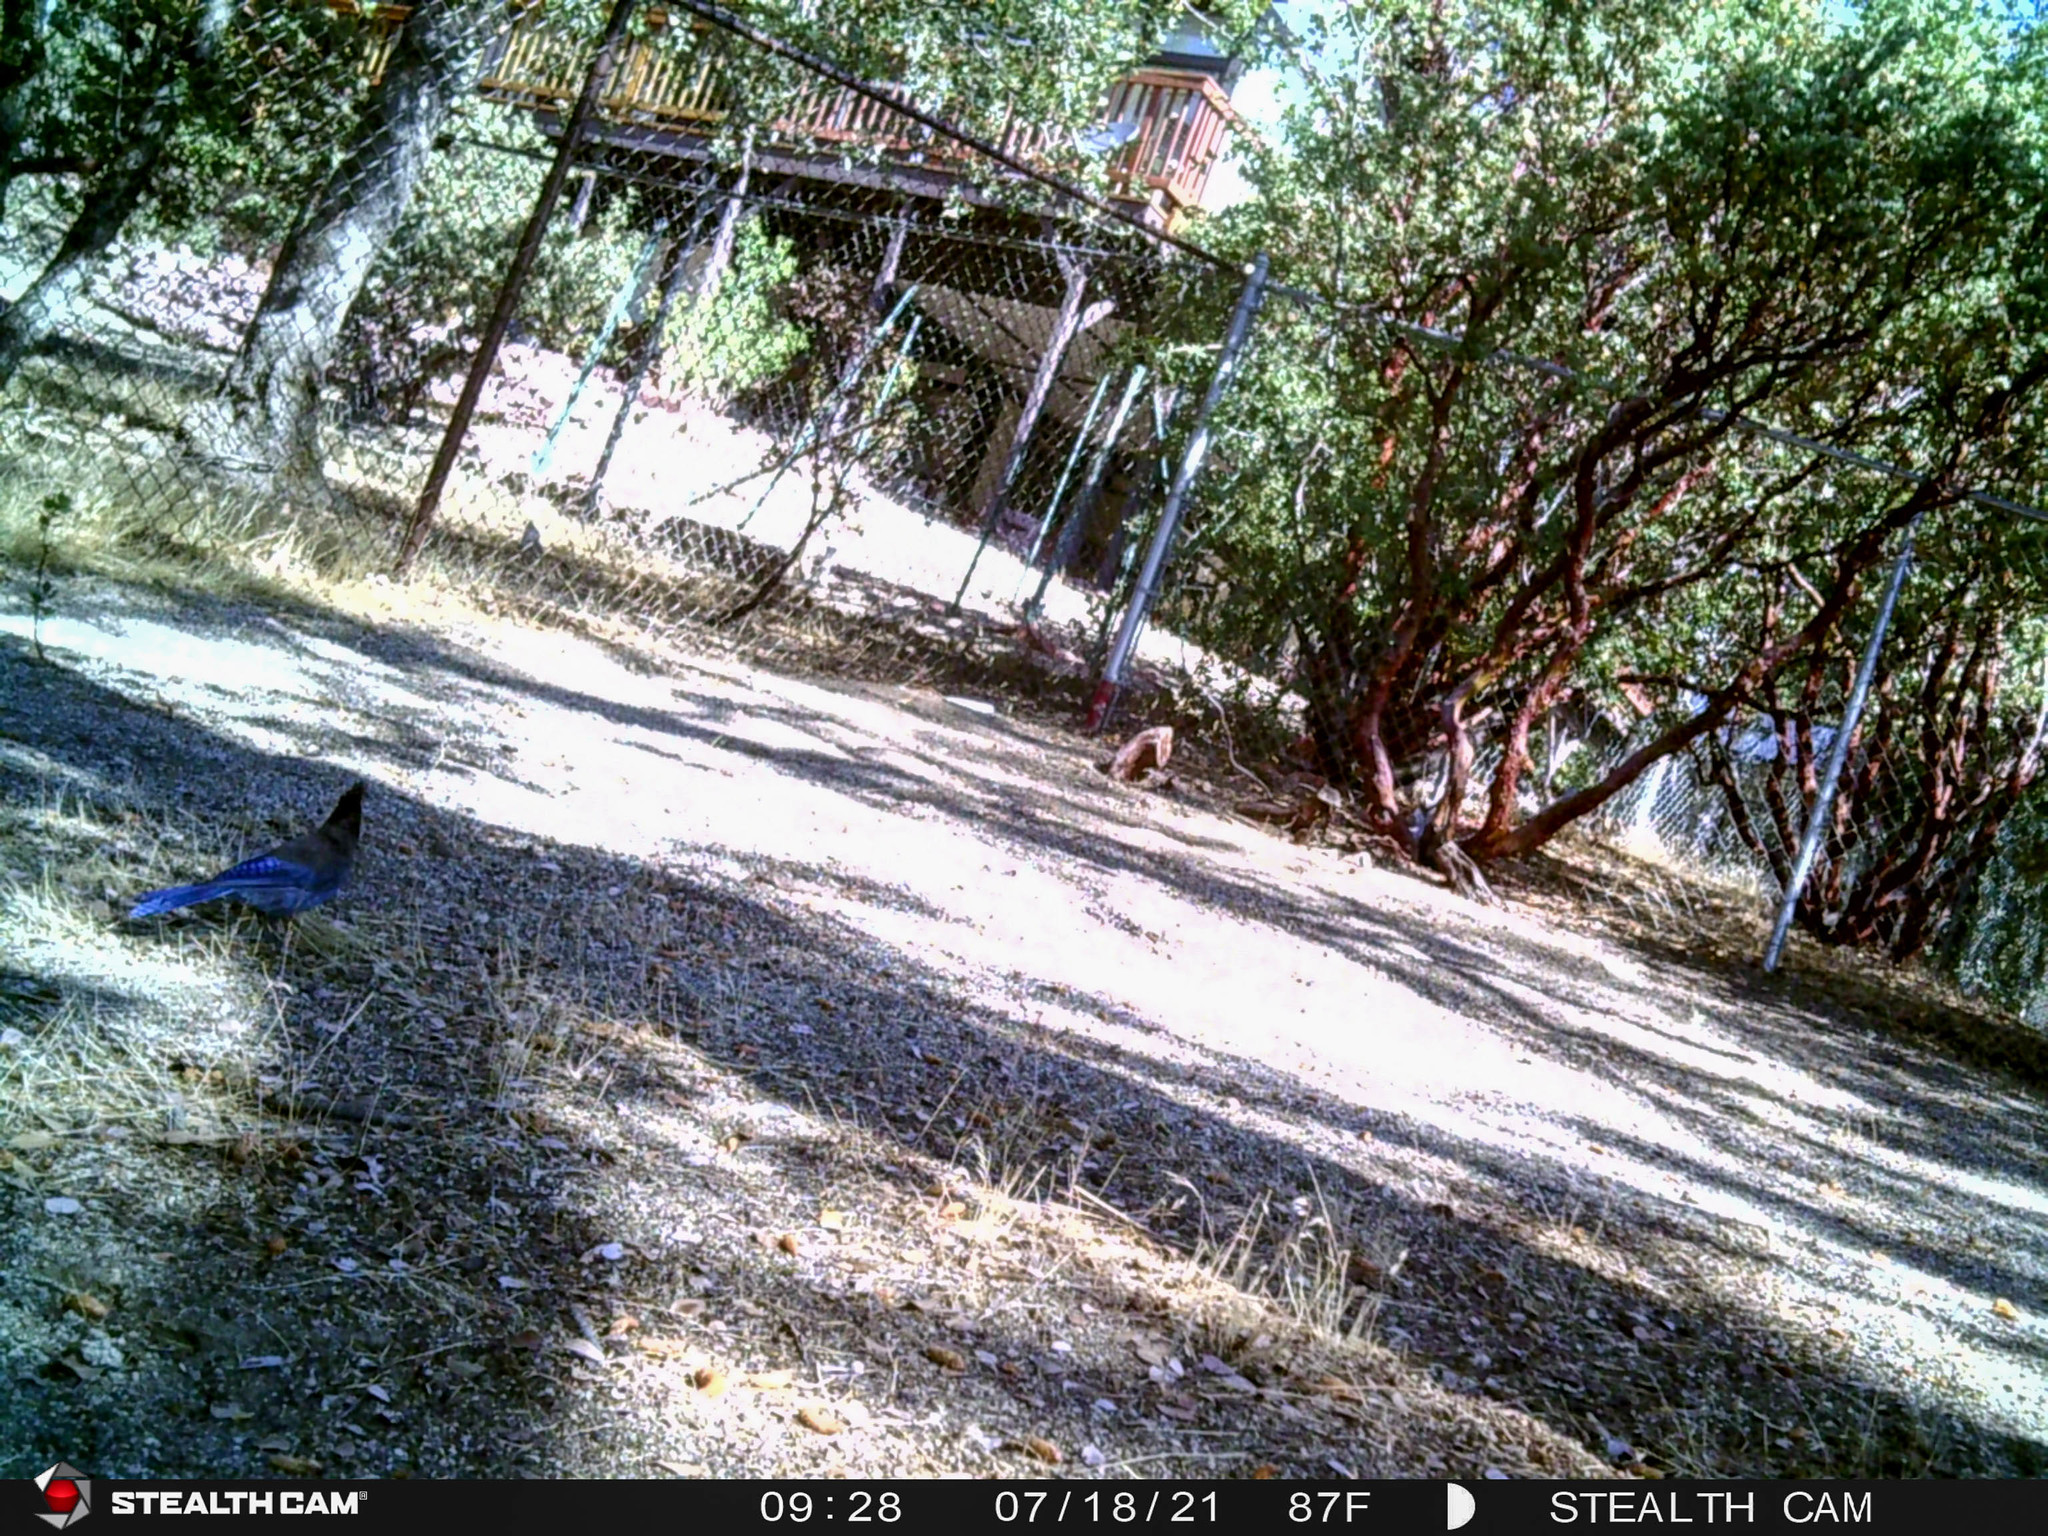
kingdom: Animalia
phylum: Chordata
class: Aves
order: Passeriformes
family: Corvidae
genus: Cyanocitta
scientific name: Cyanocitta stelleri
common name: Steller's jay
